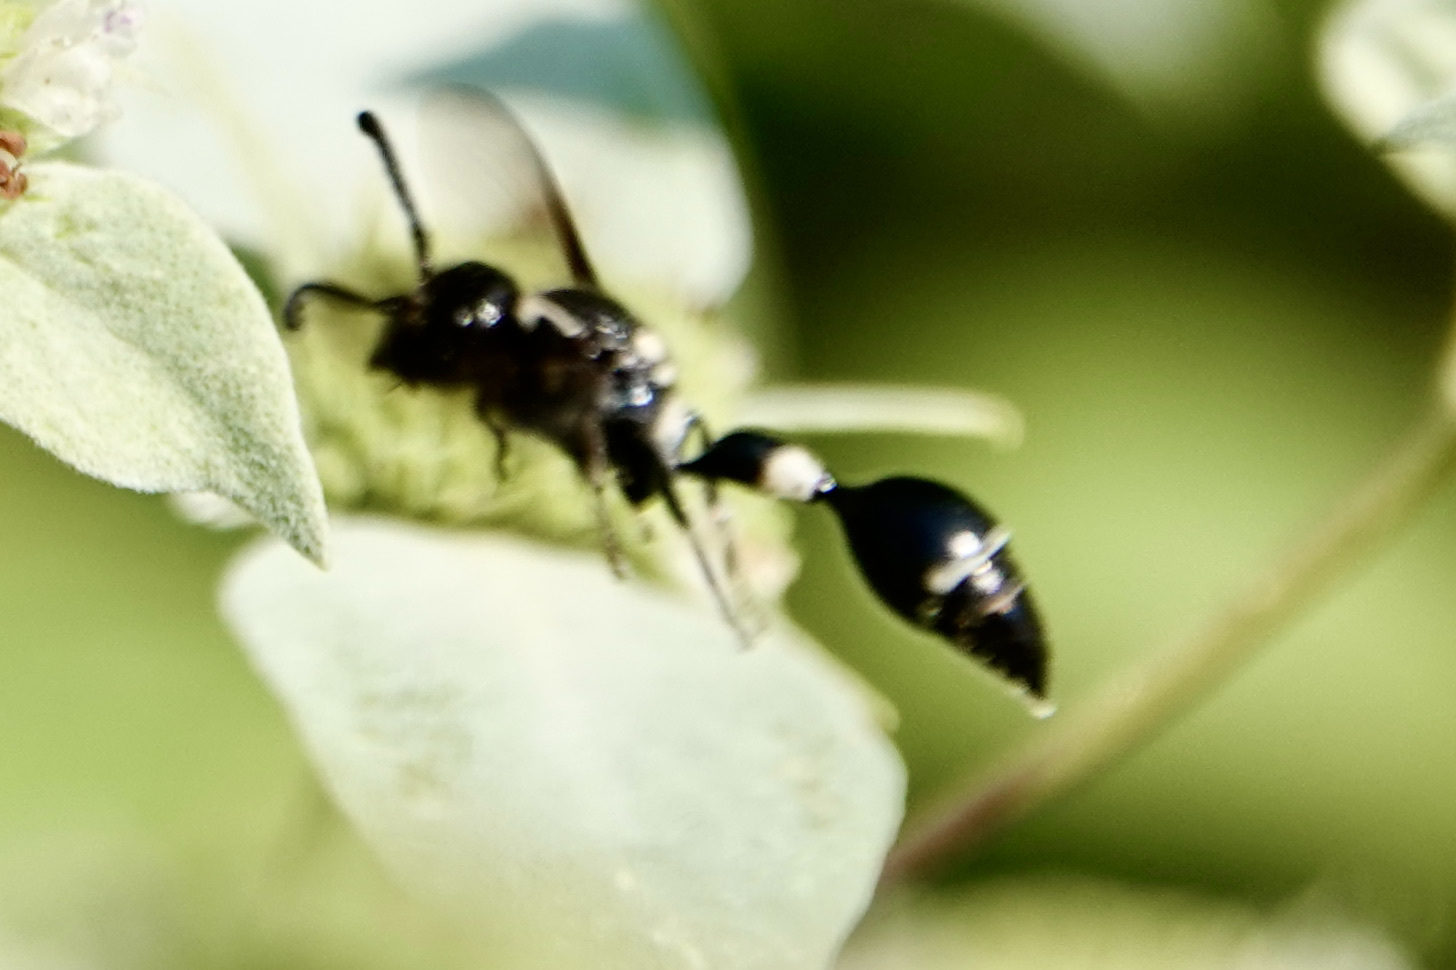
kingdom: Animalia
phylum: Arthropoda
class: Insecta
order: Hymenoptera
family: Eumenidae
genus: Zethus
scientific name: Zethus spinipes
